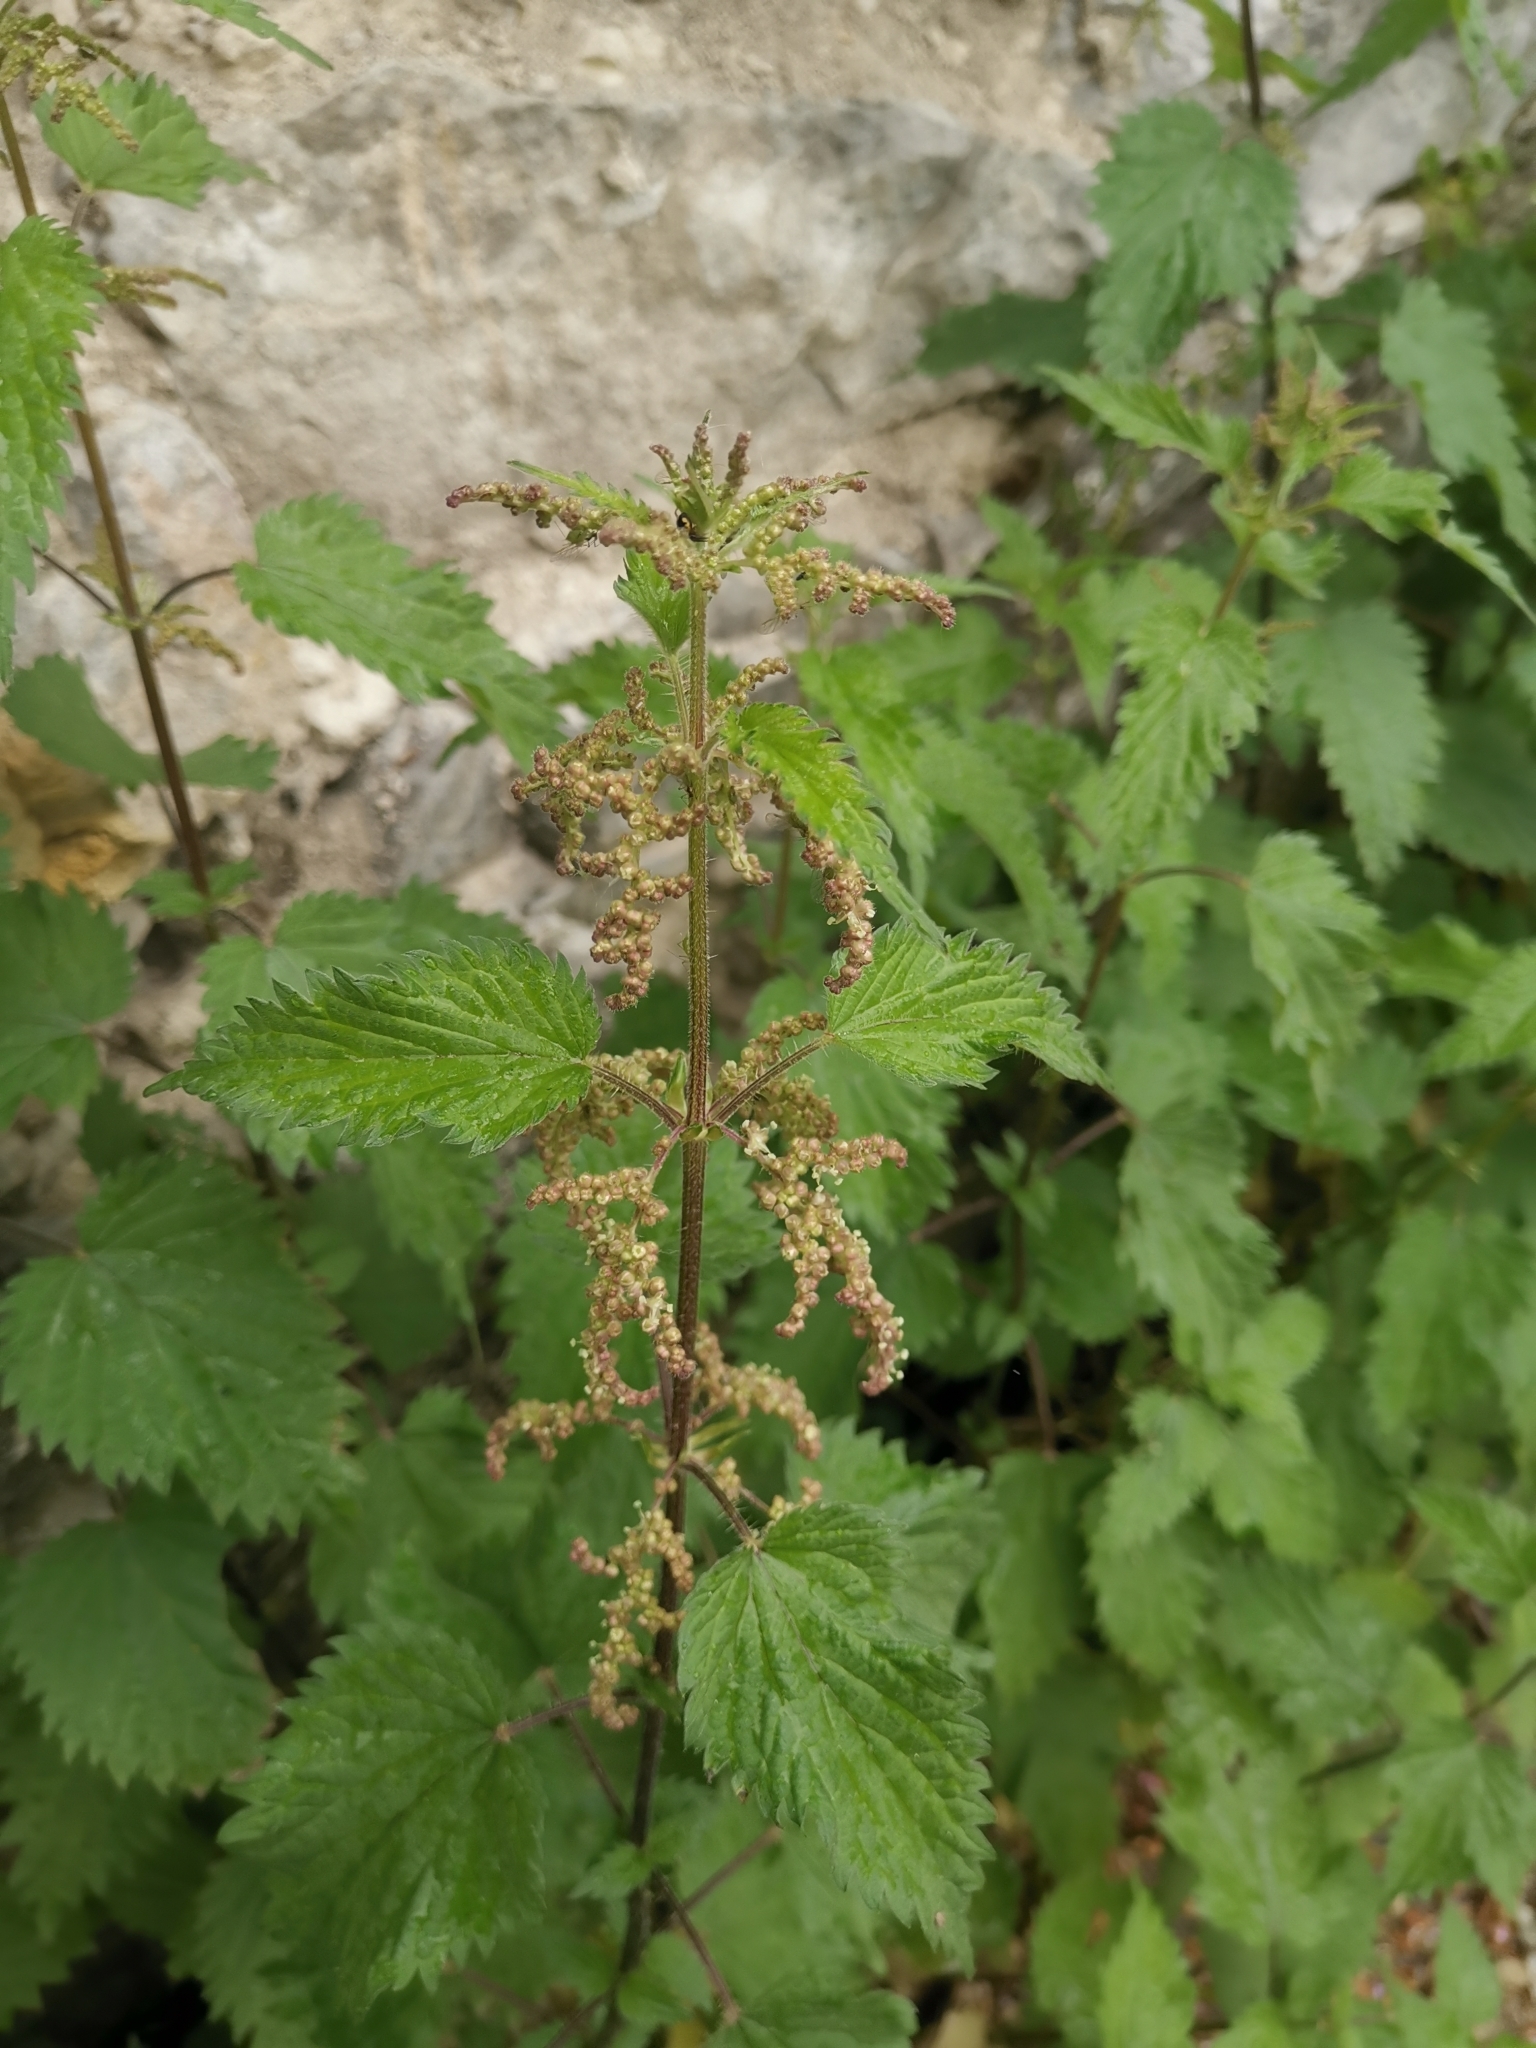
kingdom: Plantae
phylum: Tracheophyta
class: Magnoliopsida
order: Rosales
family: Urticaceae
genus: Urtica
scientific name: Urtica dioica
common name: Common nettle
